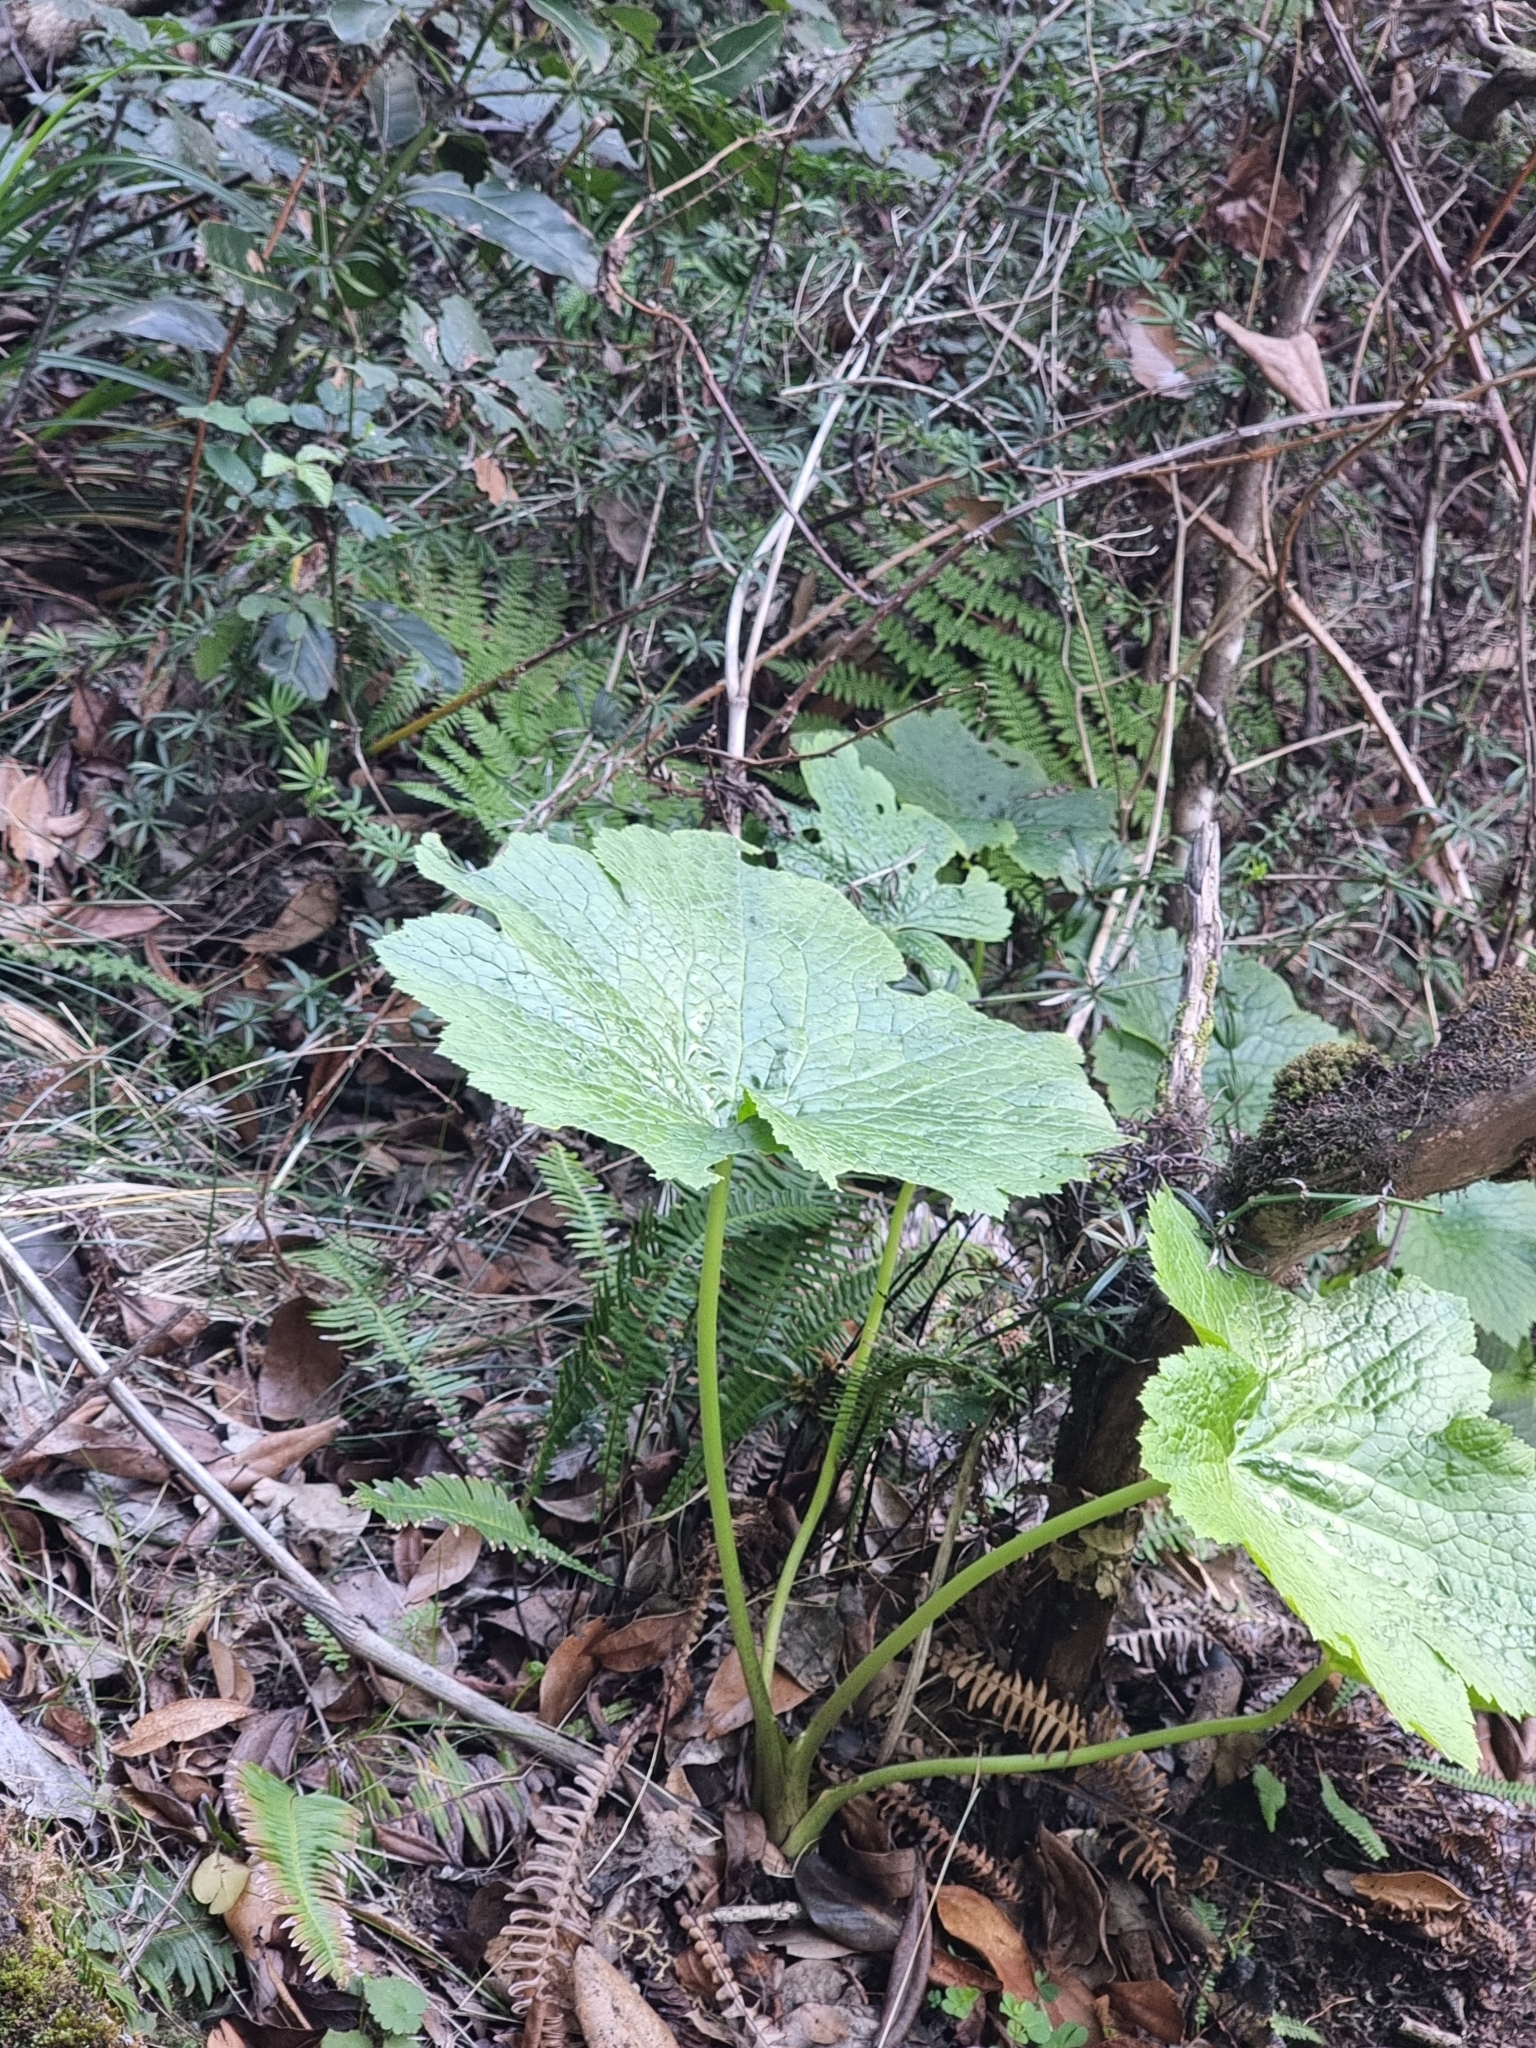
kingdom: Plantae
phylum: Tracheophyta
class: Magnoliopsida
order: Ranunculales
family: Ranunculaceae
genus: Ranunculus
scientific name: Ranunculus cortusifolius
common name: Azores buttercup
